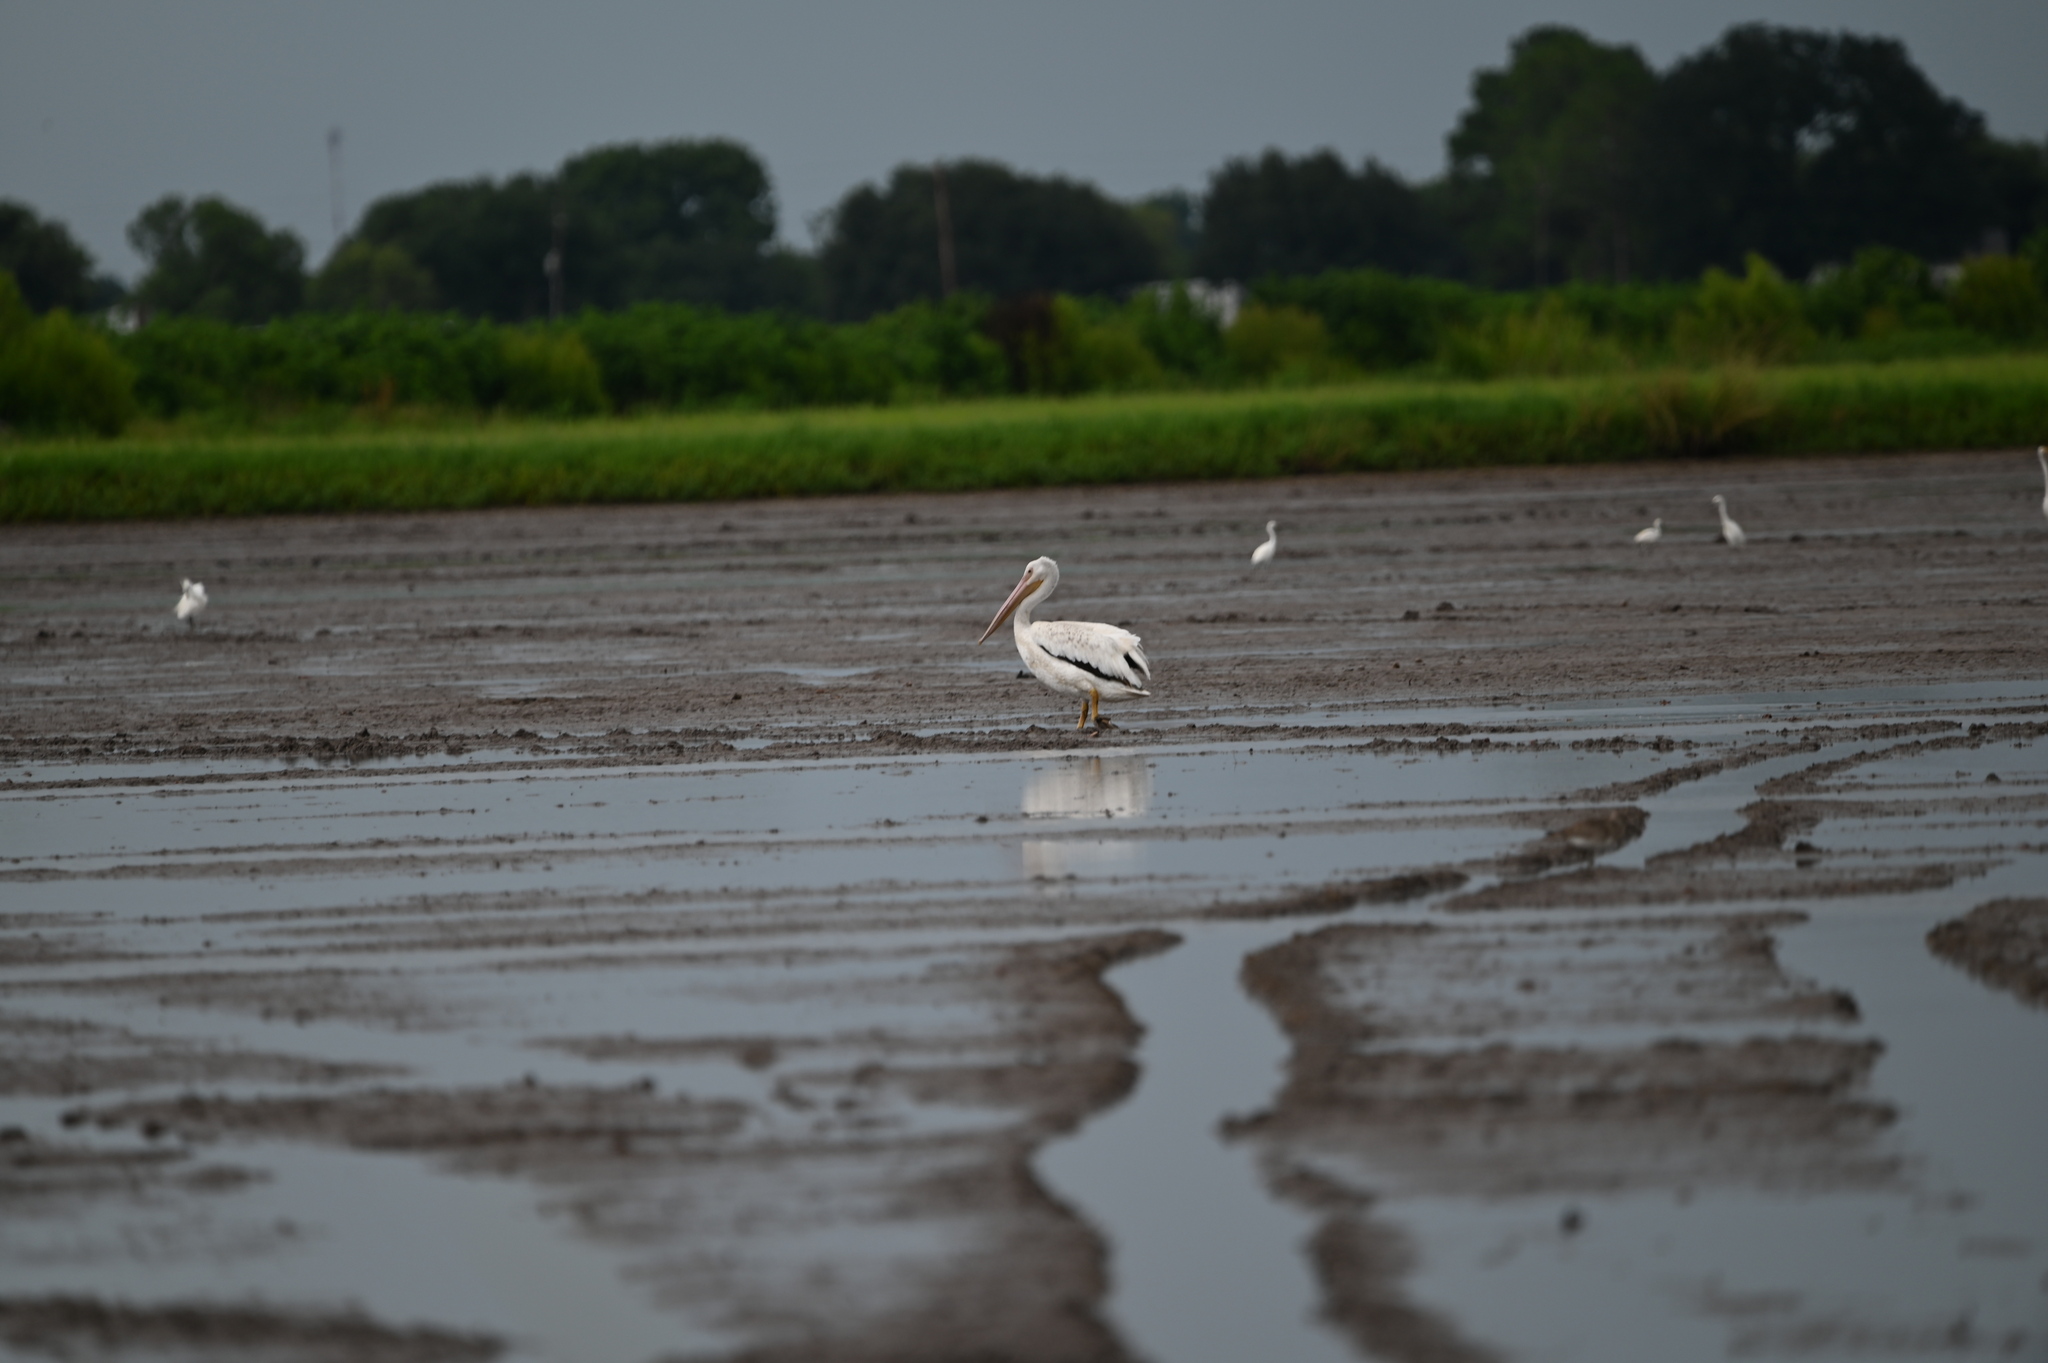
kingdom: Animalia
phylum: Chordata
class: Aves
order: Pelecaniformes
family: Pelecanidae
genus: Pelecanus
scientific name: Pelecanus erythrorhynchos
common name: American white pelican
